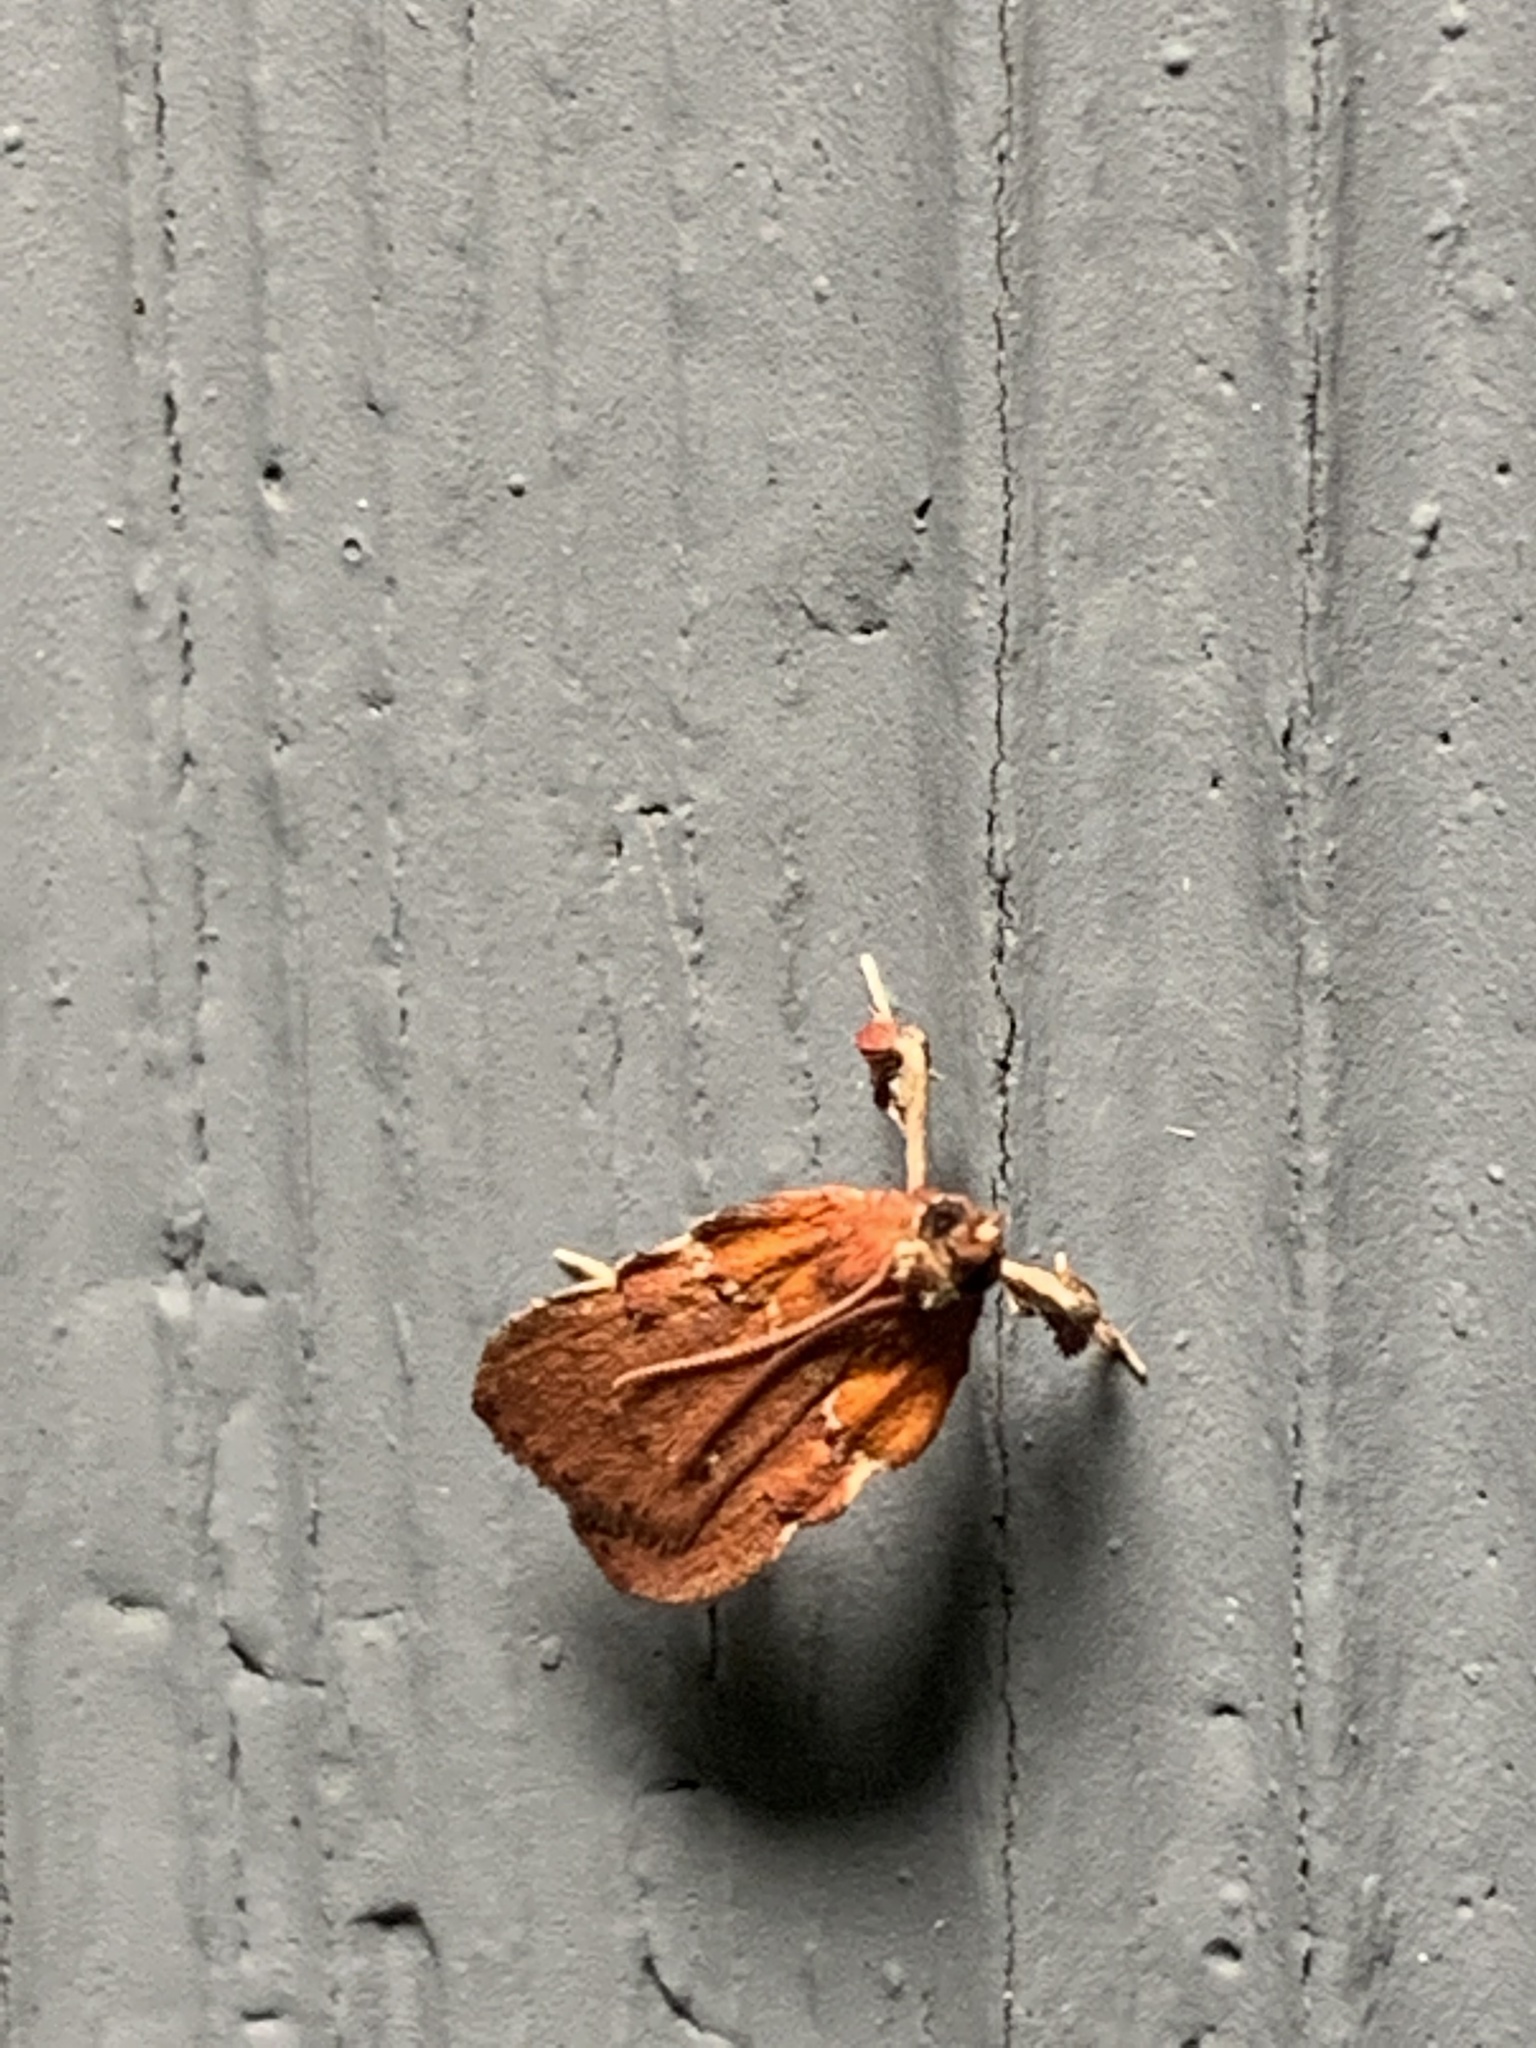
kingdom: Animalia
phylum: Arthropoda
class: Insecta
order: Lepidoptera
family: Pyralidae
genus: Galasa
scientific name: Galasa nigrinodis
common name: Boxwood leaftier moth
